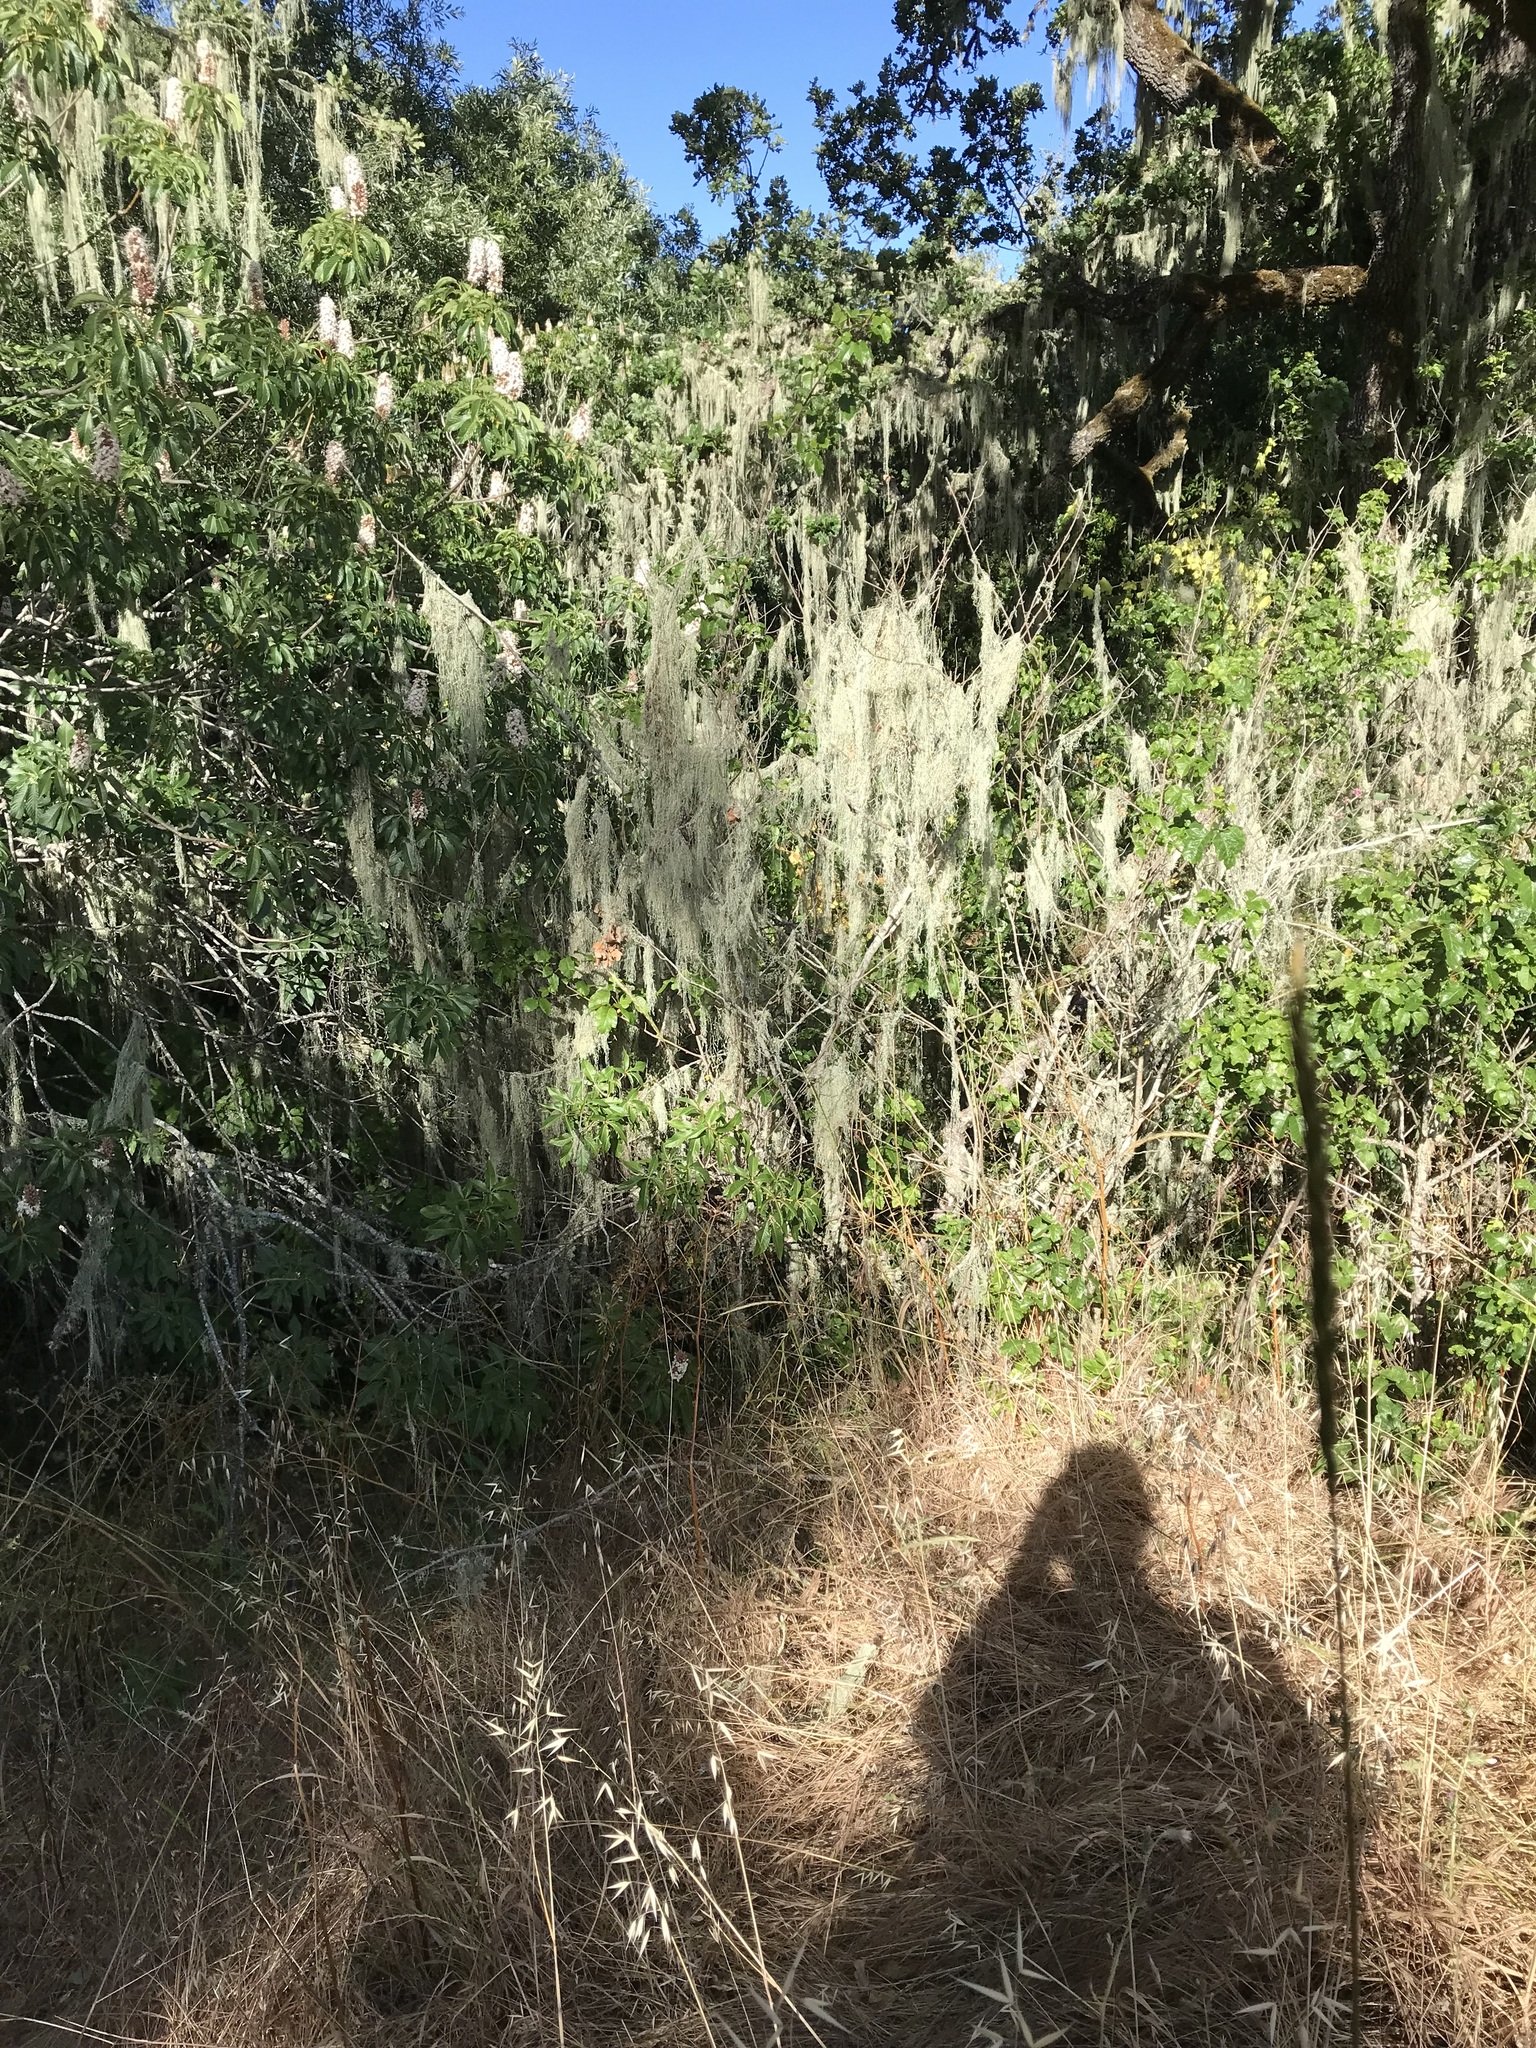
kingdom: Fungi
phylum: Ascomycota
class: Lecanoromycetes
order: Lecanorales
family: Ramalinaceae
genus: Ramalina
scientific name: Ramalina menziesii
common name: Lace lichen
